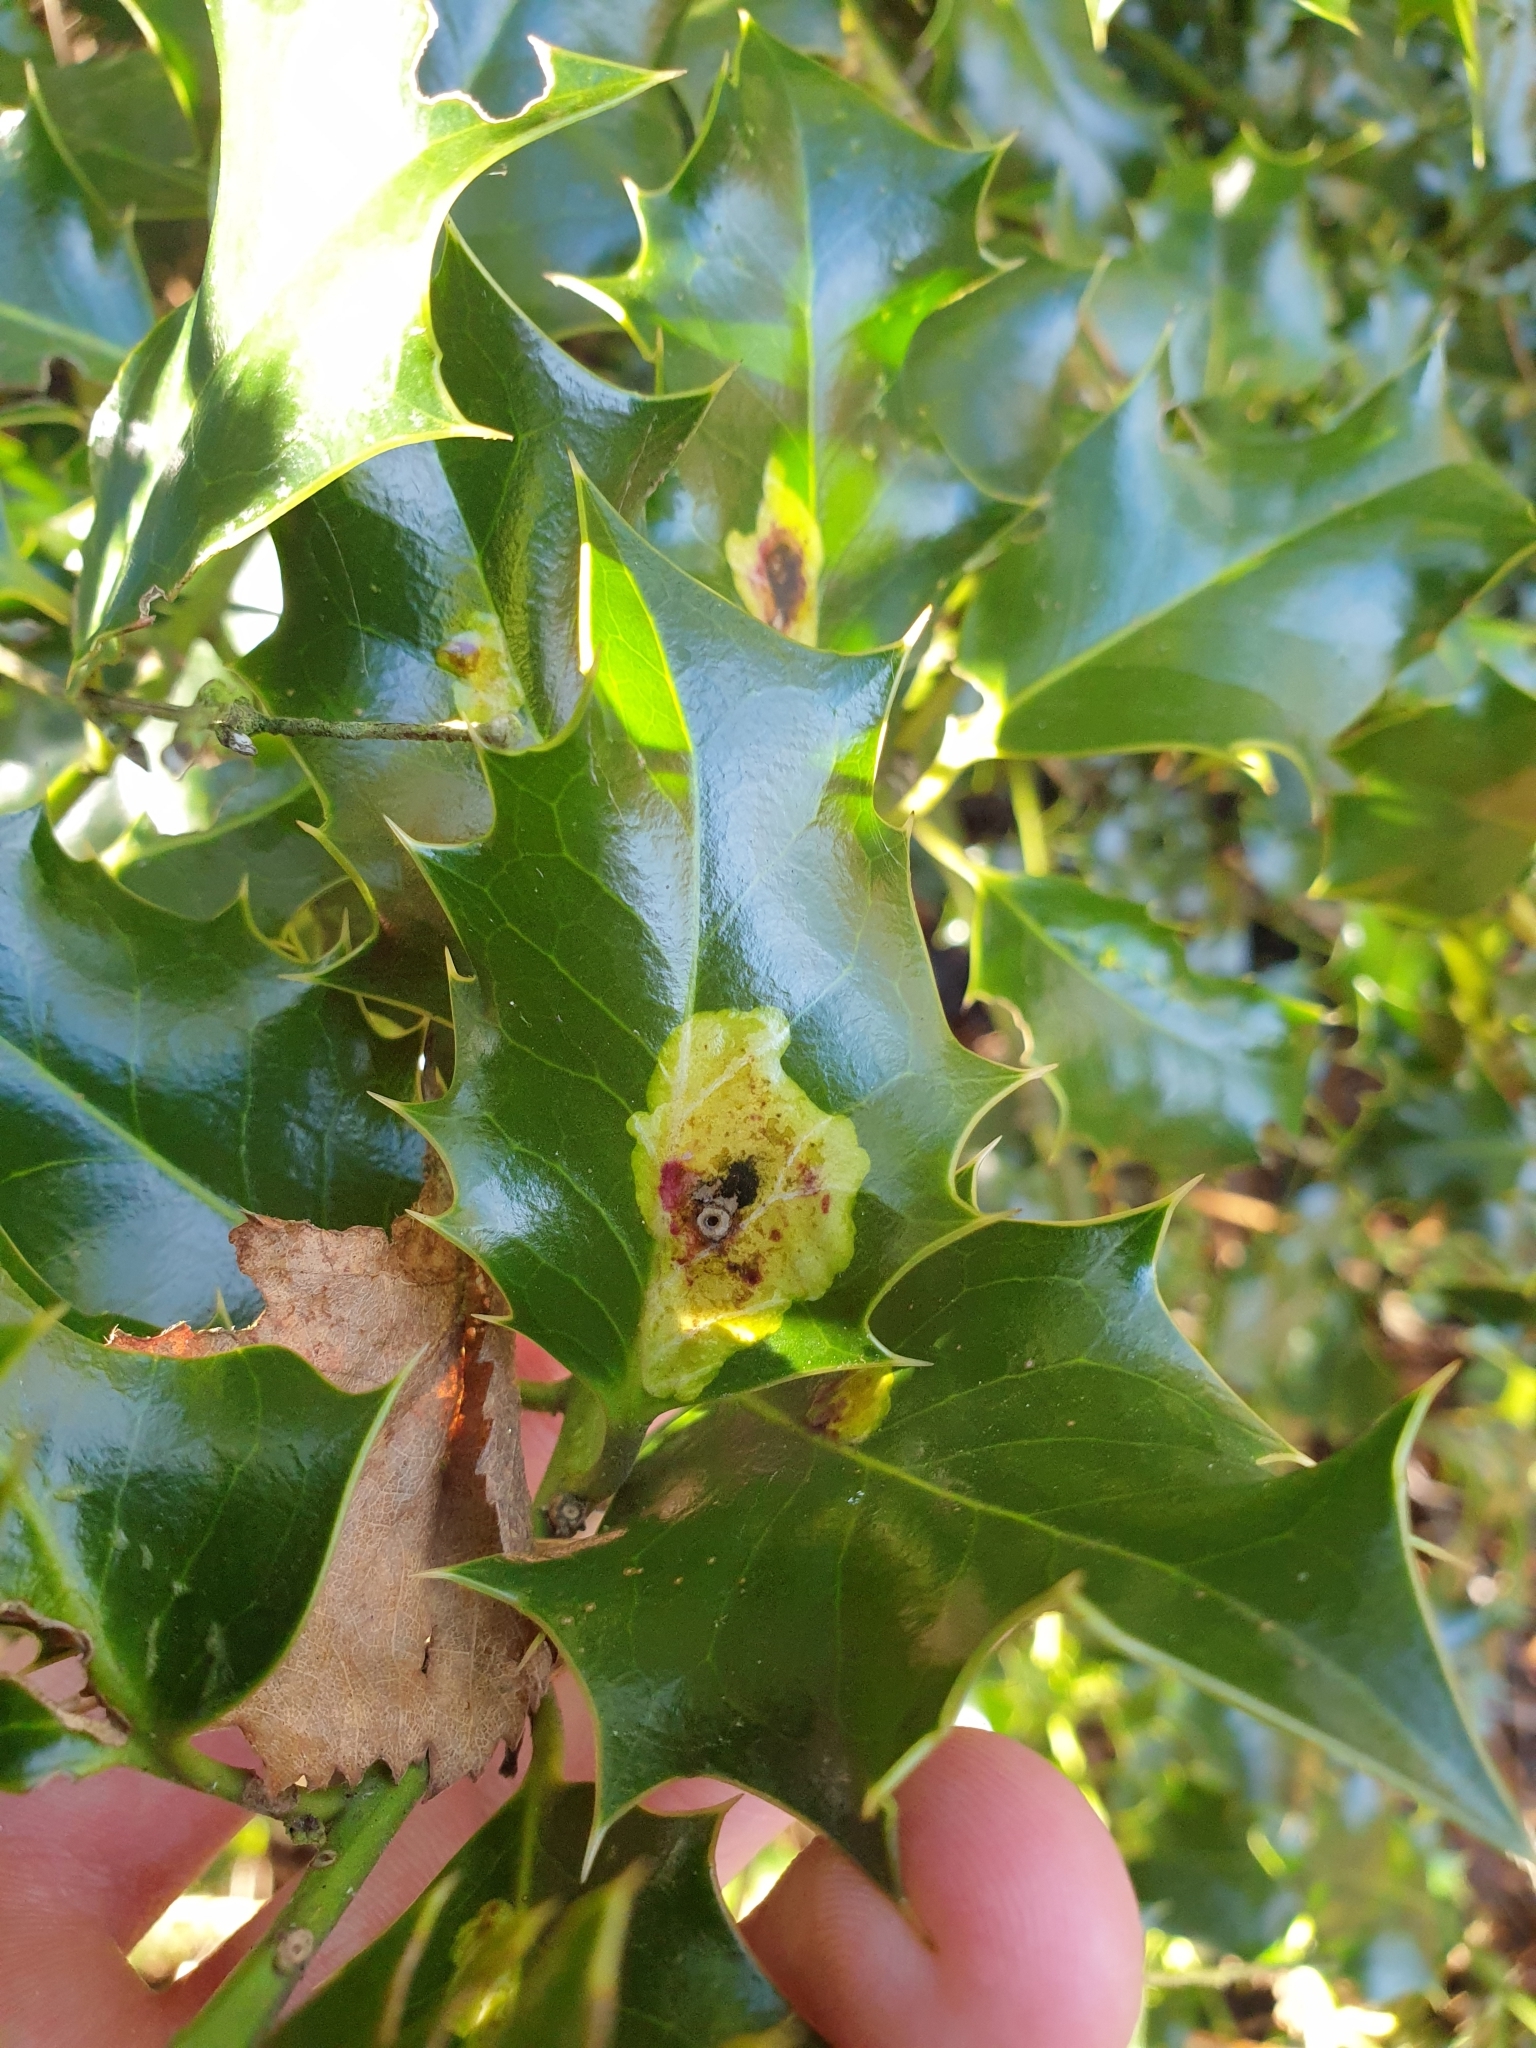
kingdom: Animalia
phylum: Arthropoda
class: Insecta
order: Diptera
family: Agromyzidae
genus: Phytomyza
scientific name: Phytomyza ilicis
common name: Holly leafminer
